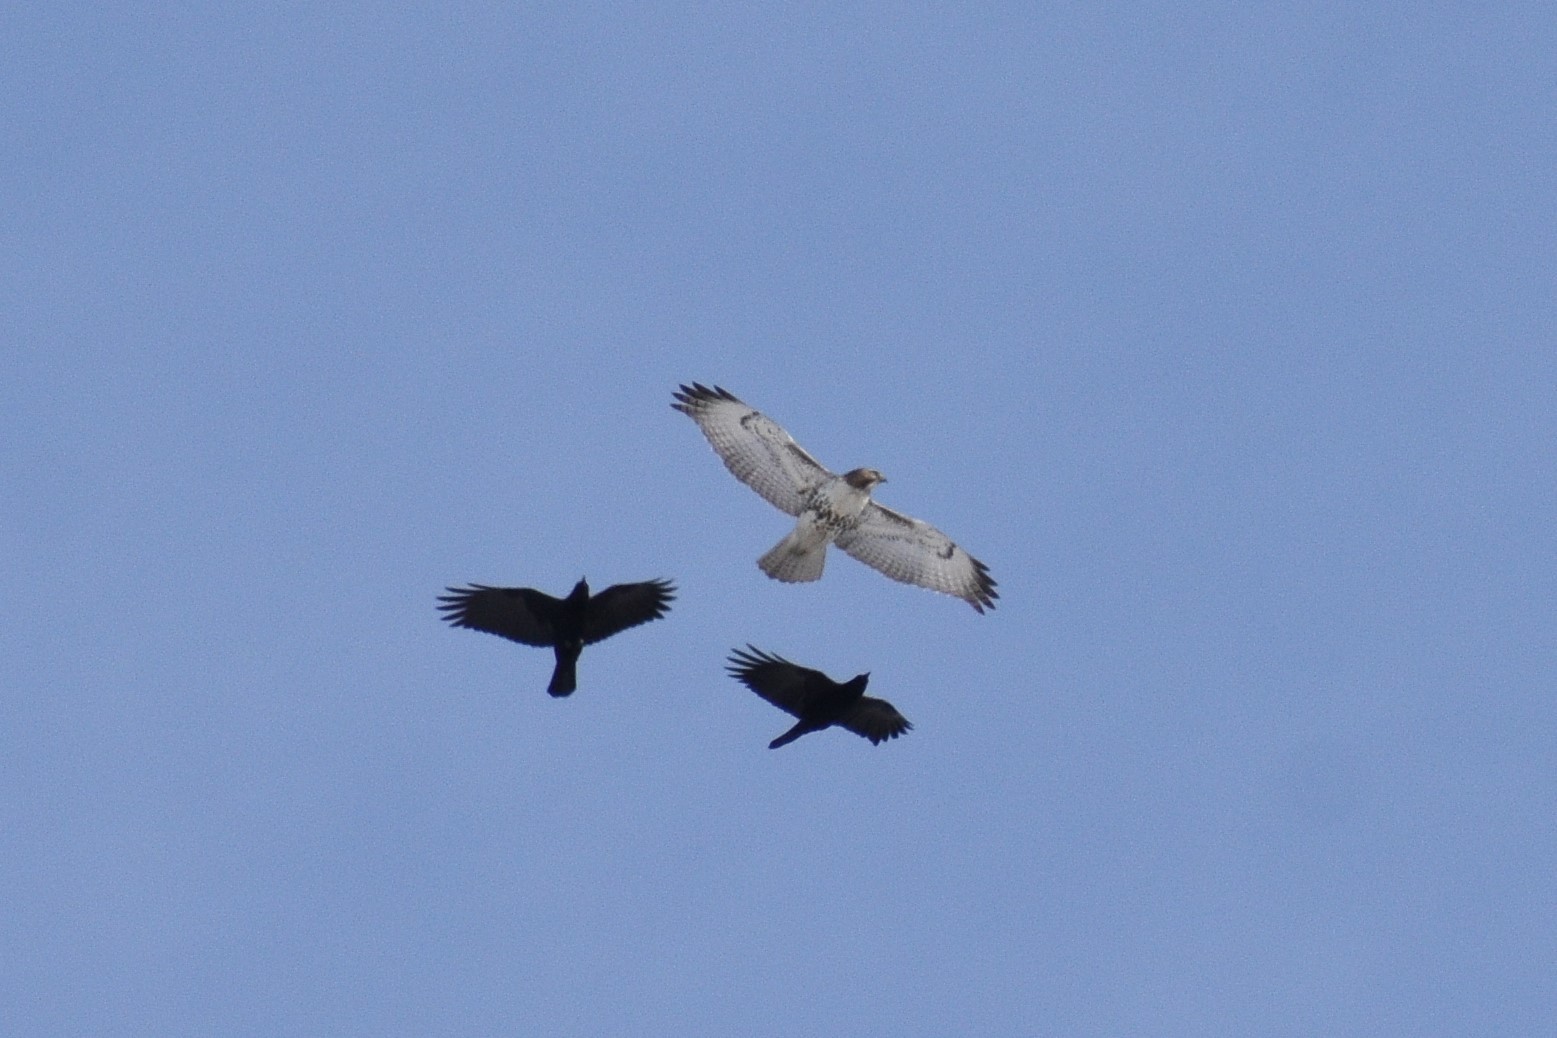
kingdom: Animalia
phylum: Chordata
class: Aves
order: Accipitriformes
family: Accipitridae
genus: Buteo
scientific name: Buteo jamaicensis
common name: Red-tailed hawk
